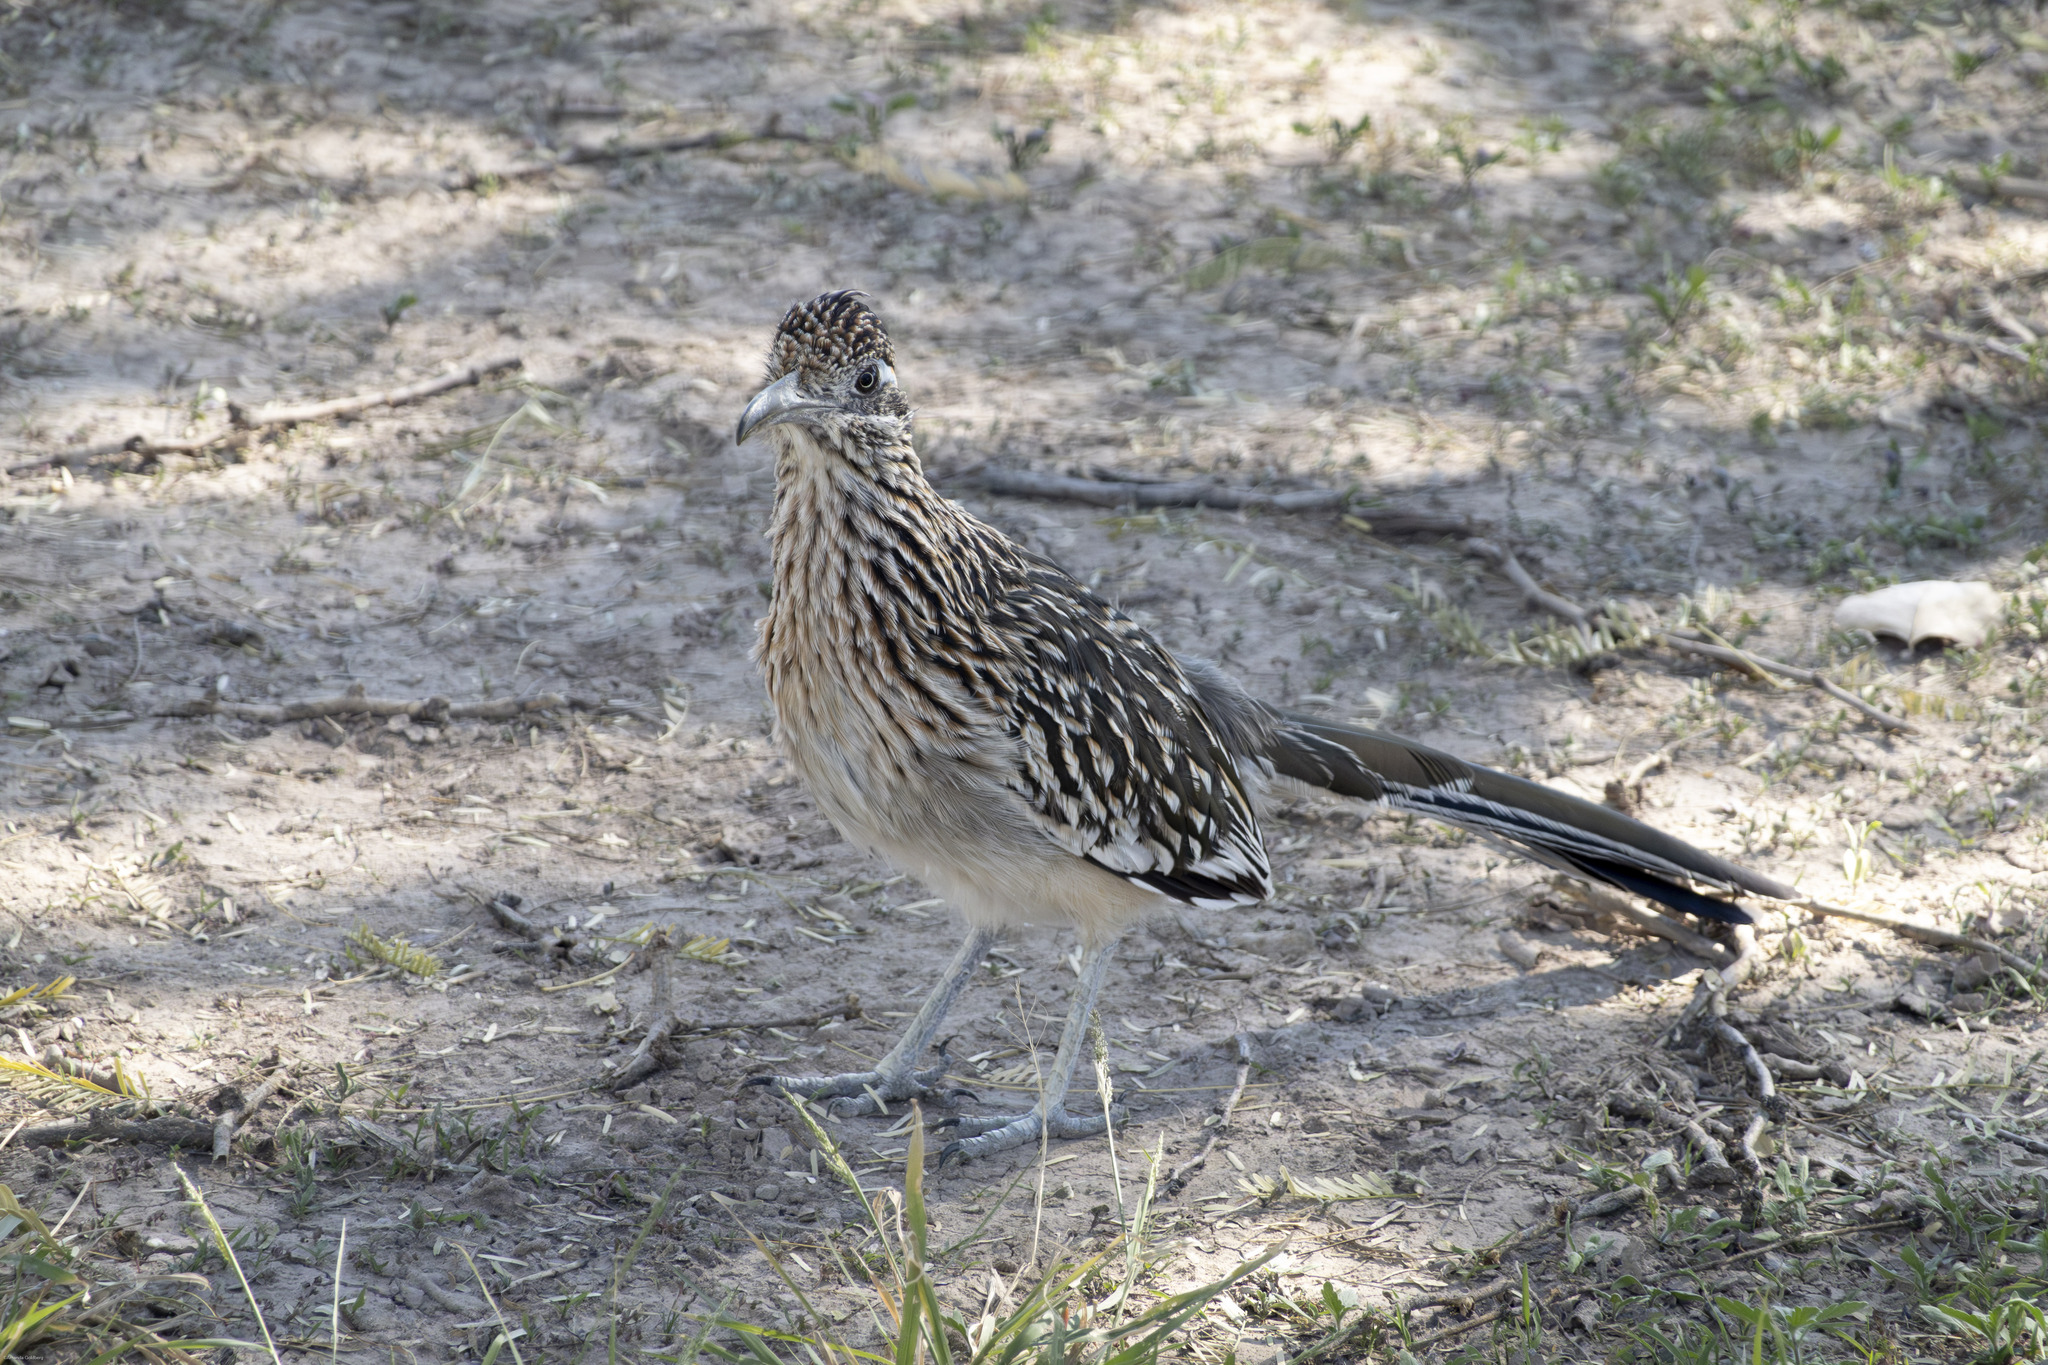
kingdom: Animalia
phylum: Chordata
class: Aves
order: Cuculiformes
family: Cuculidae
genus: Geococcyx
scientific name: Geococcyx californianus
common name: Greater roadrunner
